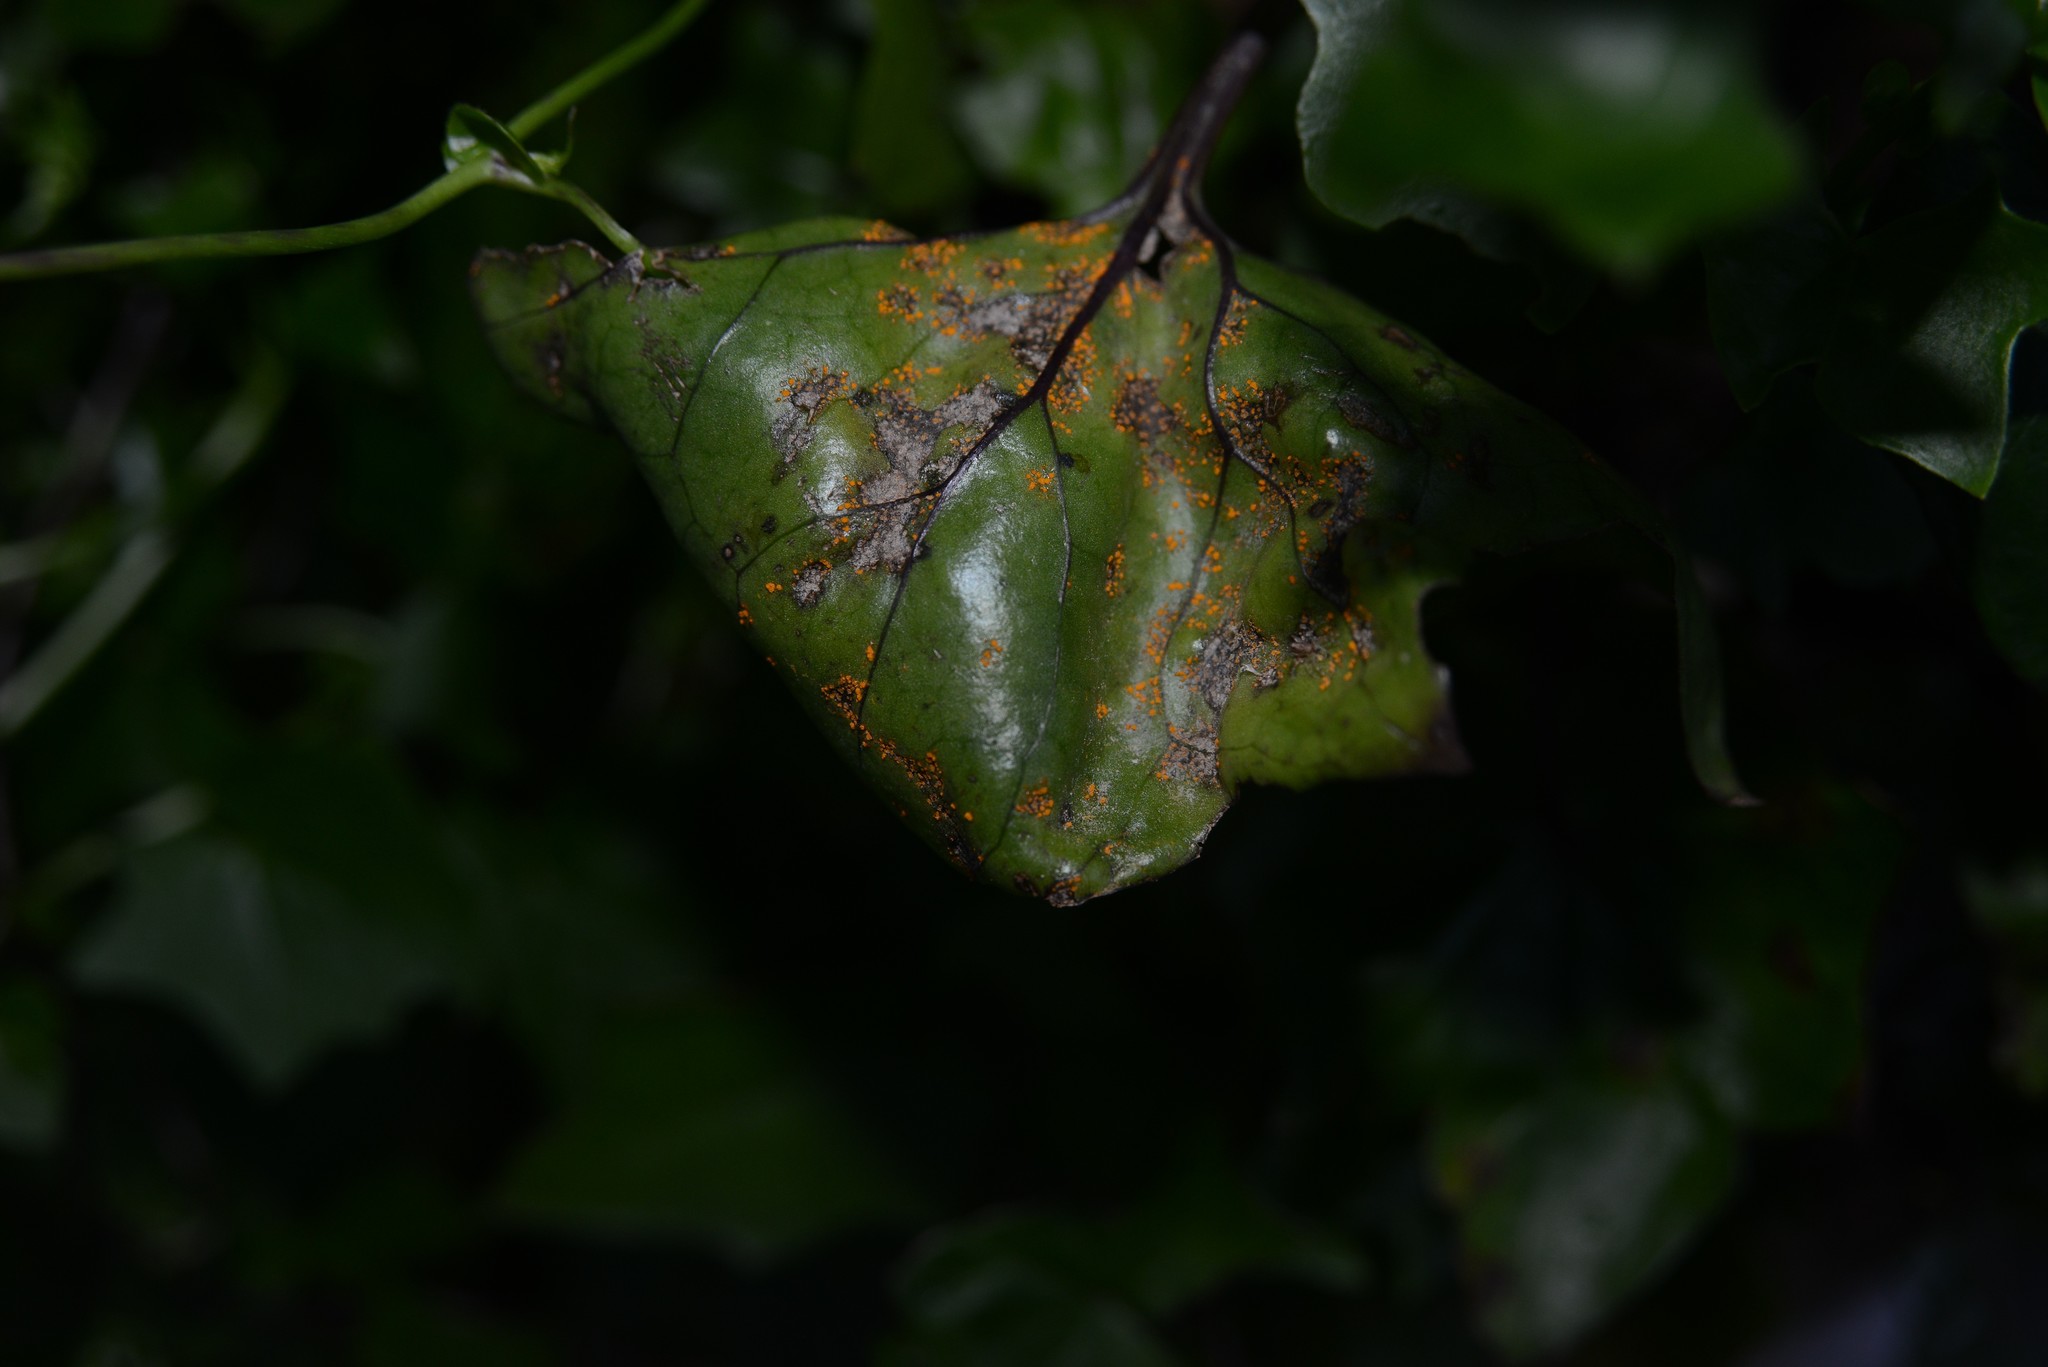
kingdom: Fungi
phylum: Basidiomycota
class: Pucciniomycetes
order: Pucciniales
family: Coleosporiaceae
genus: Coleosporium
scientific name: Coleosporium tussilaginis
